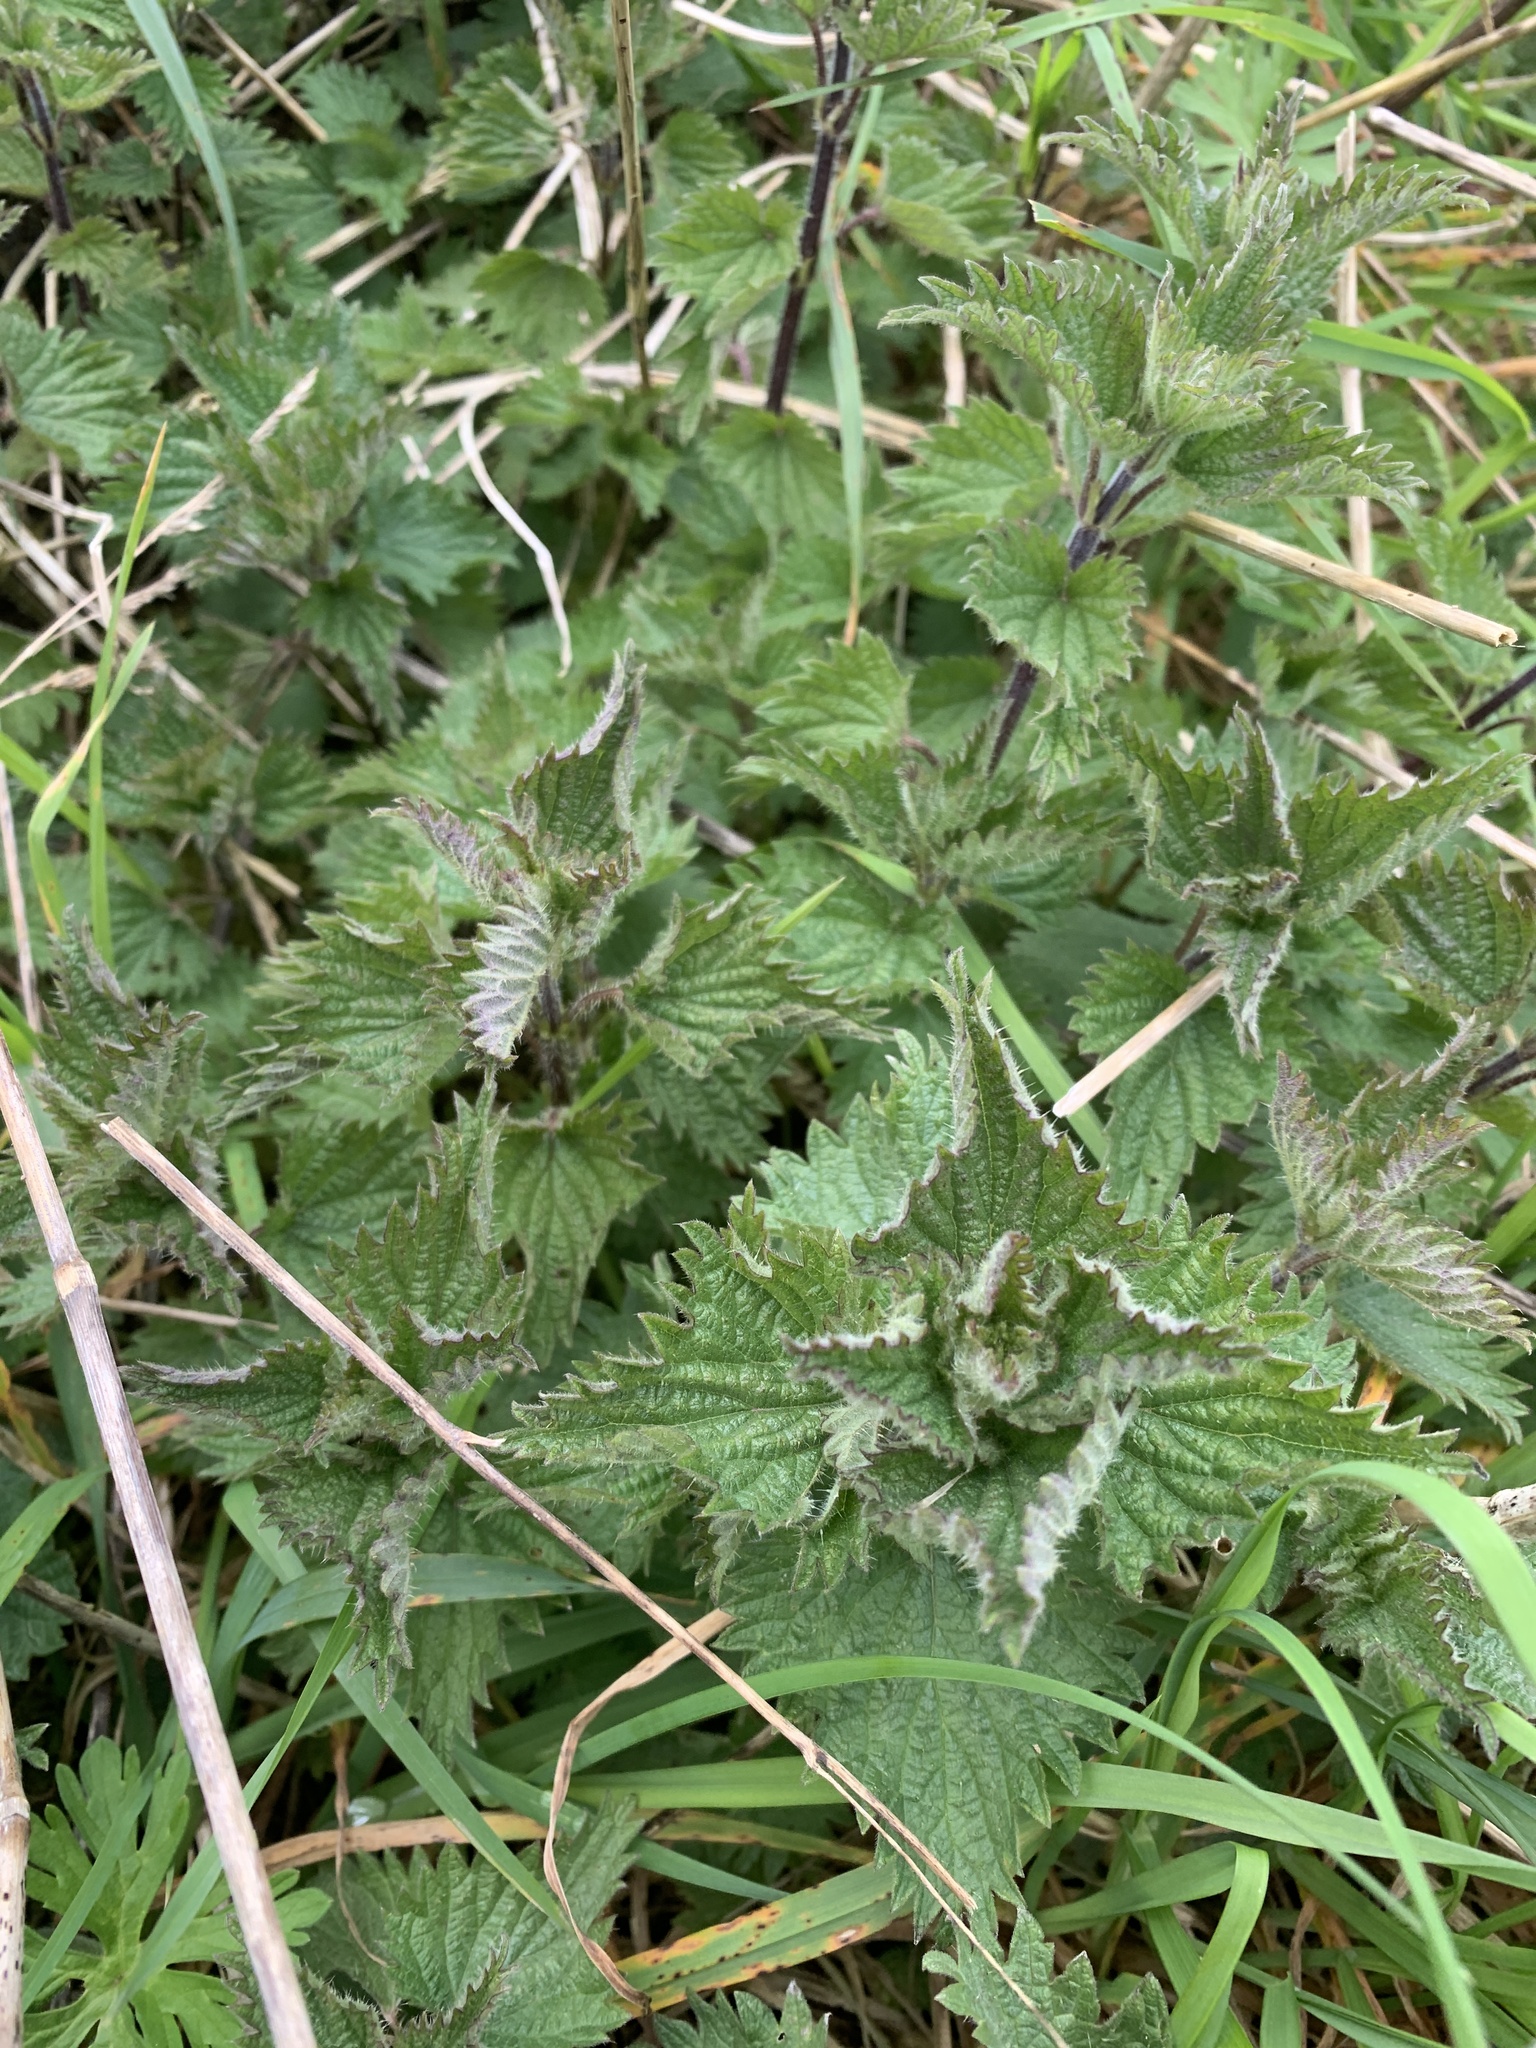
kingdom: Plantae
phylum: Tracheophyta
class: Magnoliopsida
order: Rosales
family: Urticaceae
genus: Urtica
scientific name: Urtica dioica
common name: Common nettle
